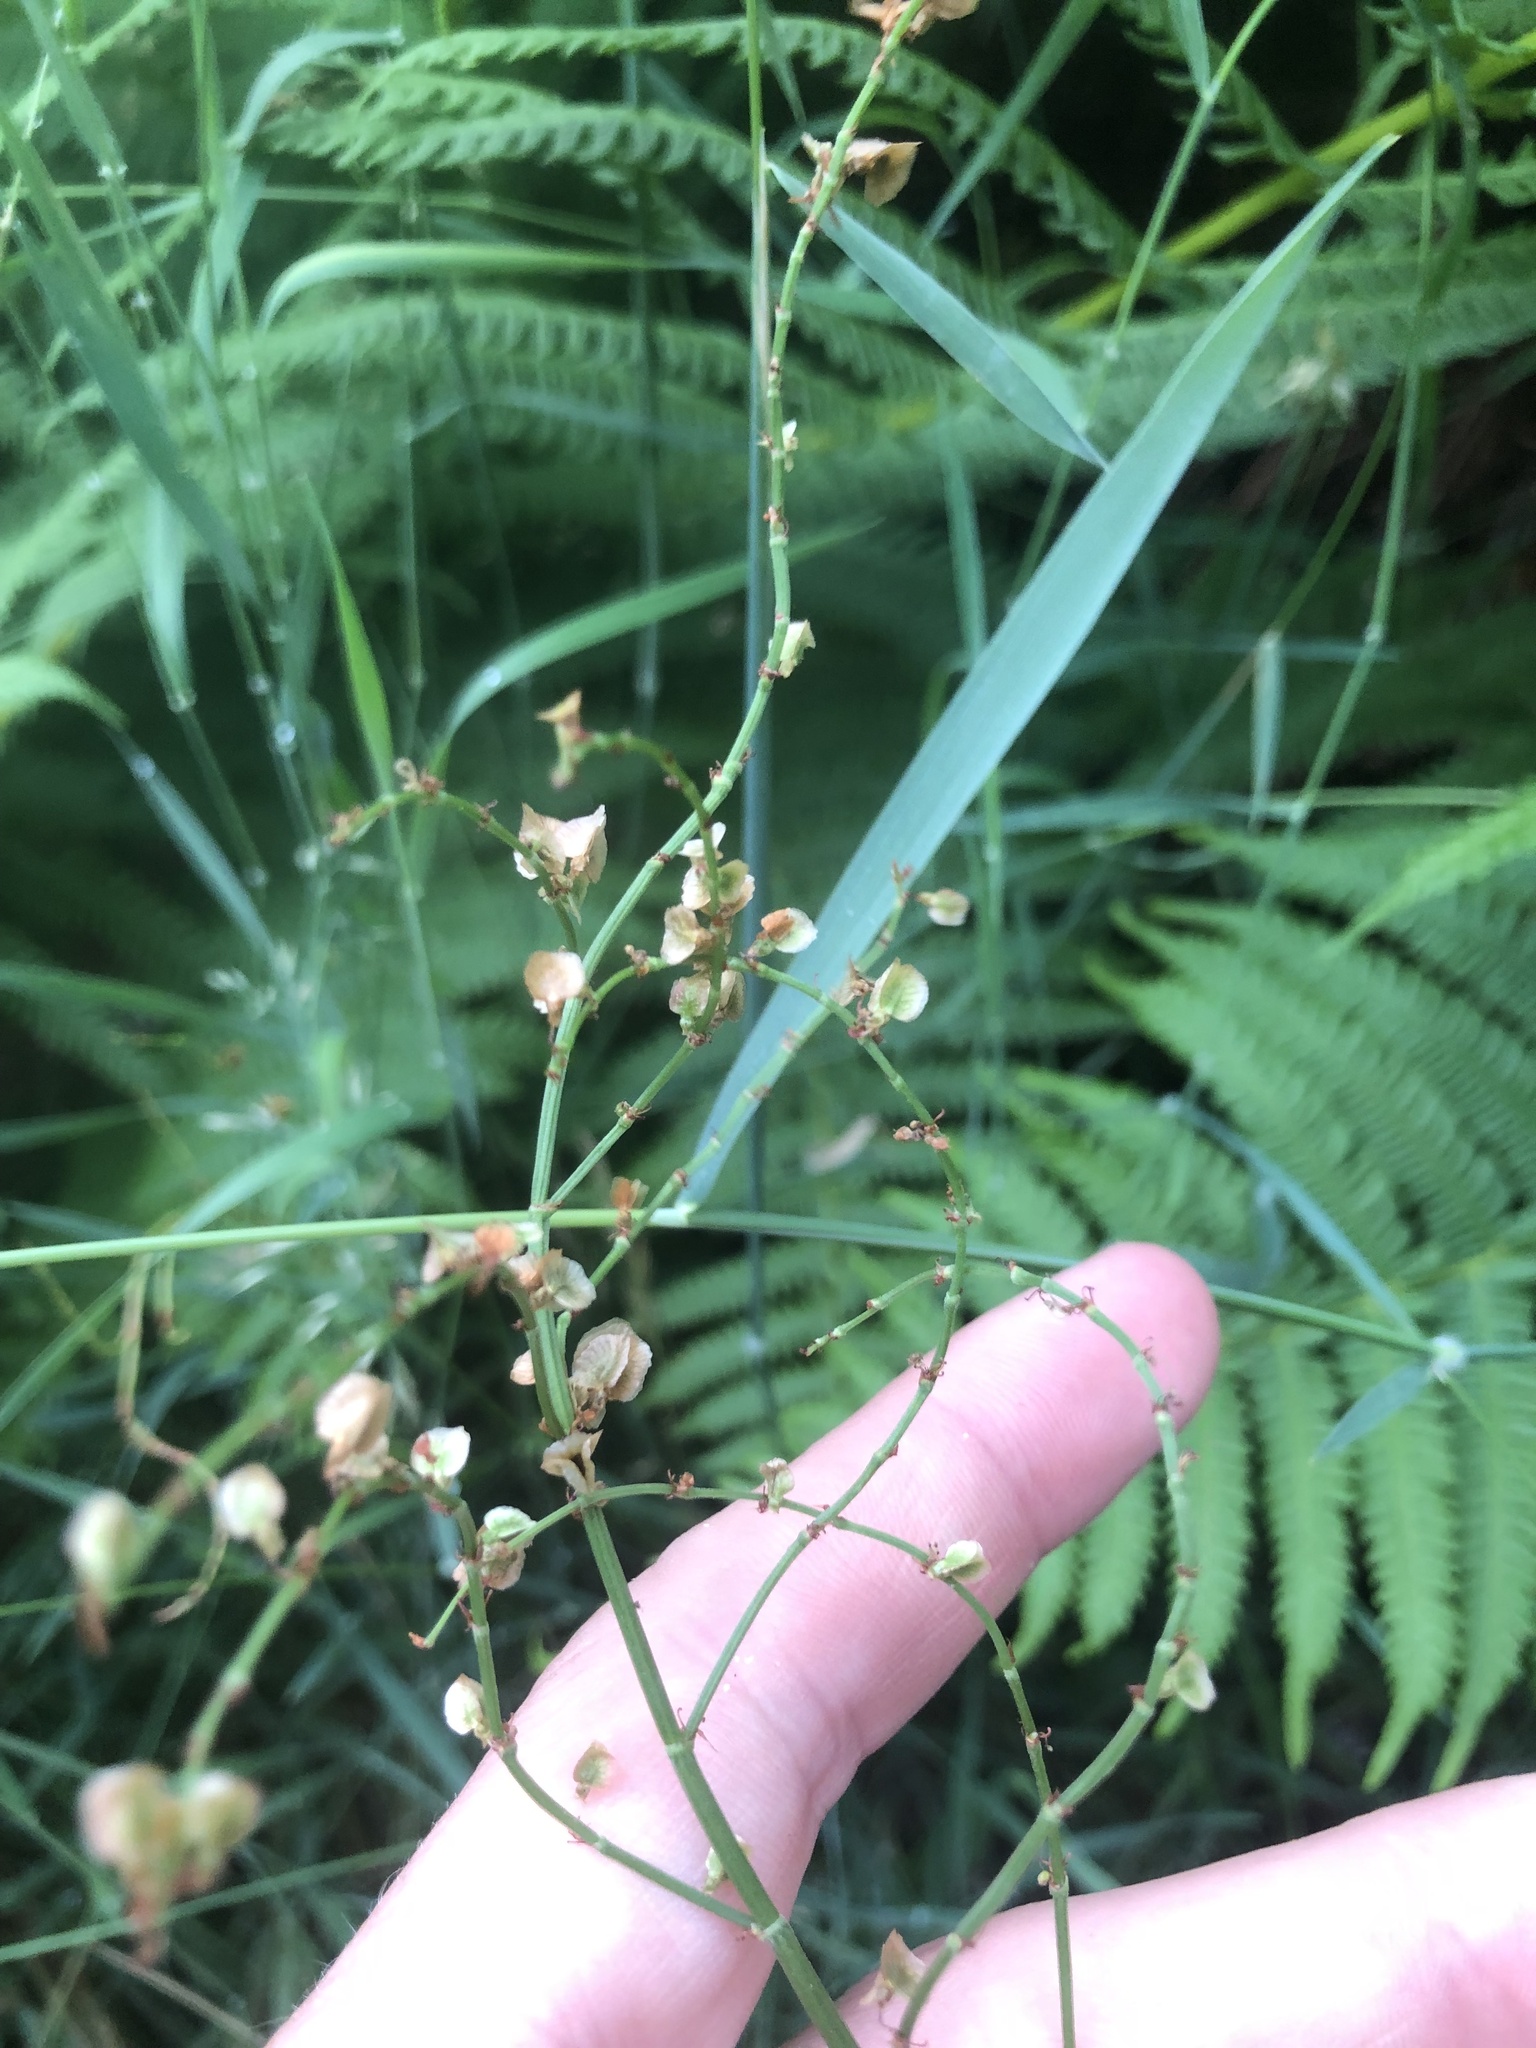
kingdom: Plantae
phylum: Tracheophyta
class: Magnoliopsida
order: Caryophyllales
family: Polygonaceae
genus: Rumex
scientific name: Rumex acetosa
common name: Garden sorrel
